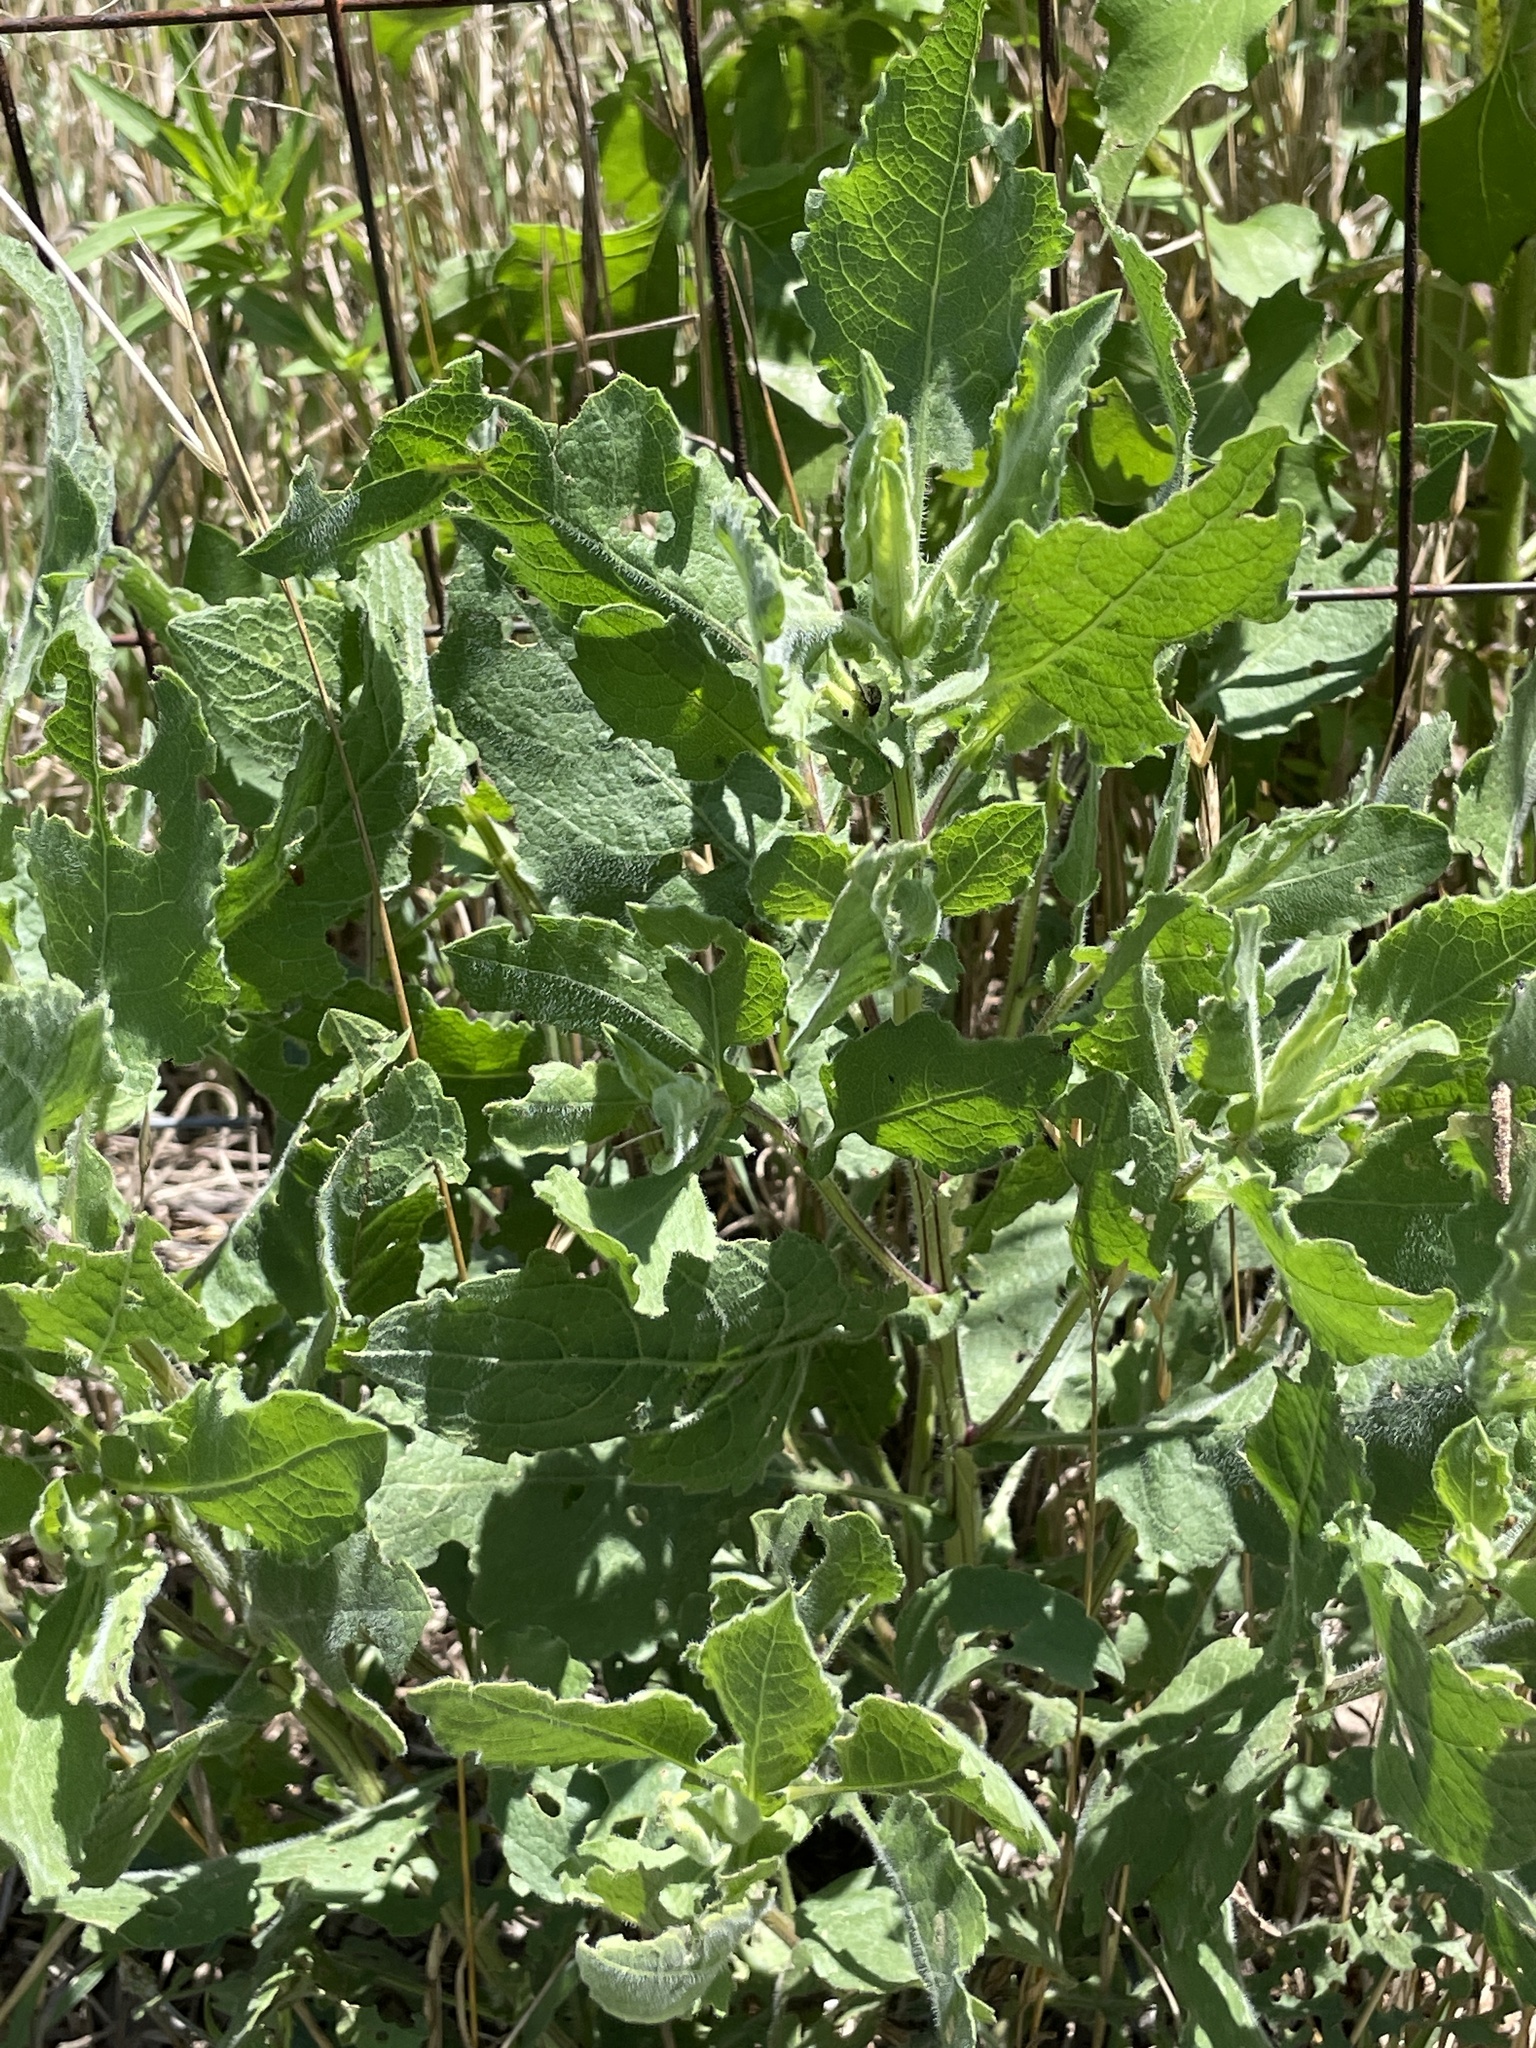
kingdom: Plantae
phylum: Tracheophyta
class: Magnoliopsida
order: Asterales
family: Asteraceae
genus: Heterotheca
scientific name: Heterotheca subaxillaris
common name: Camphorweed
